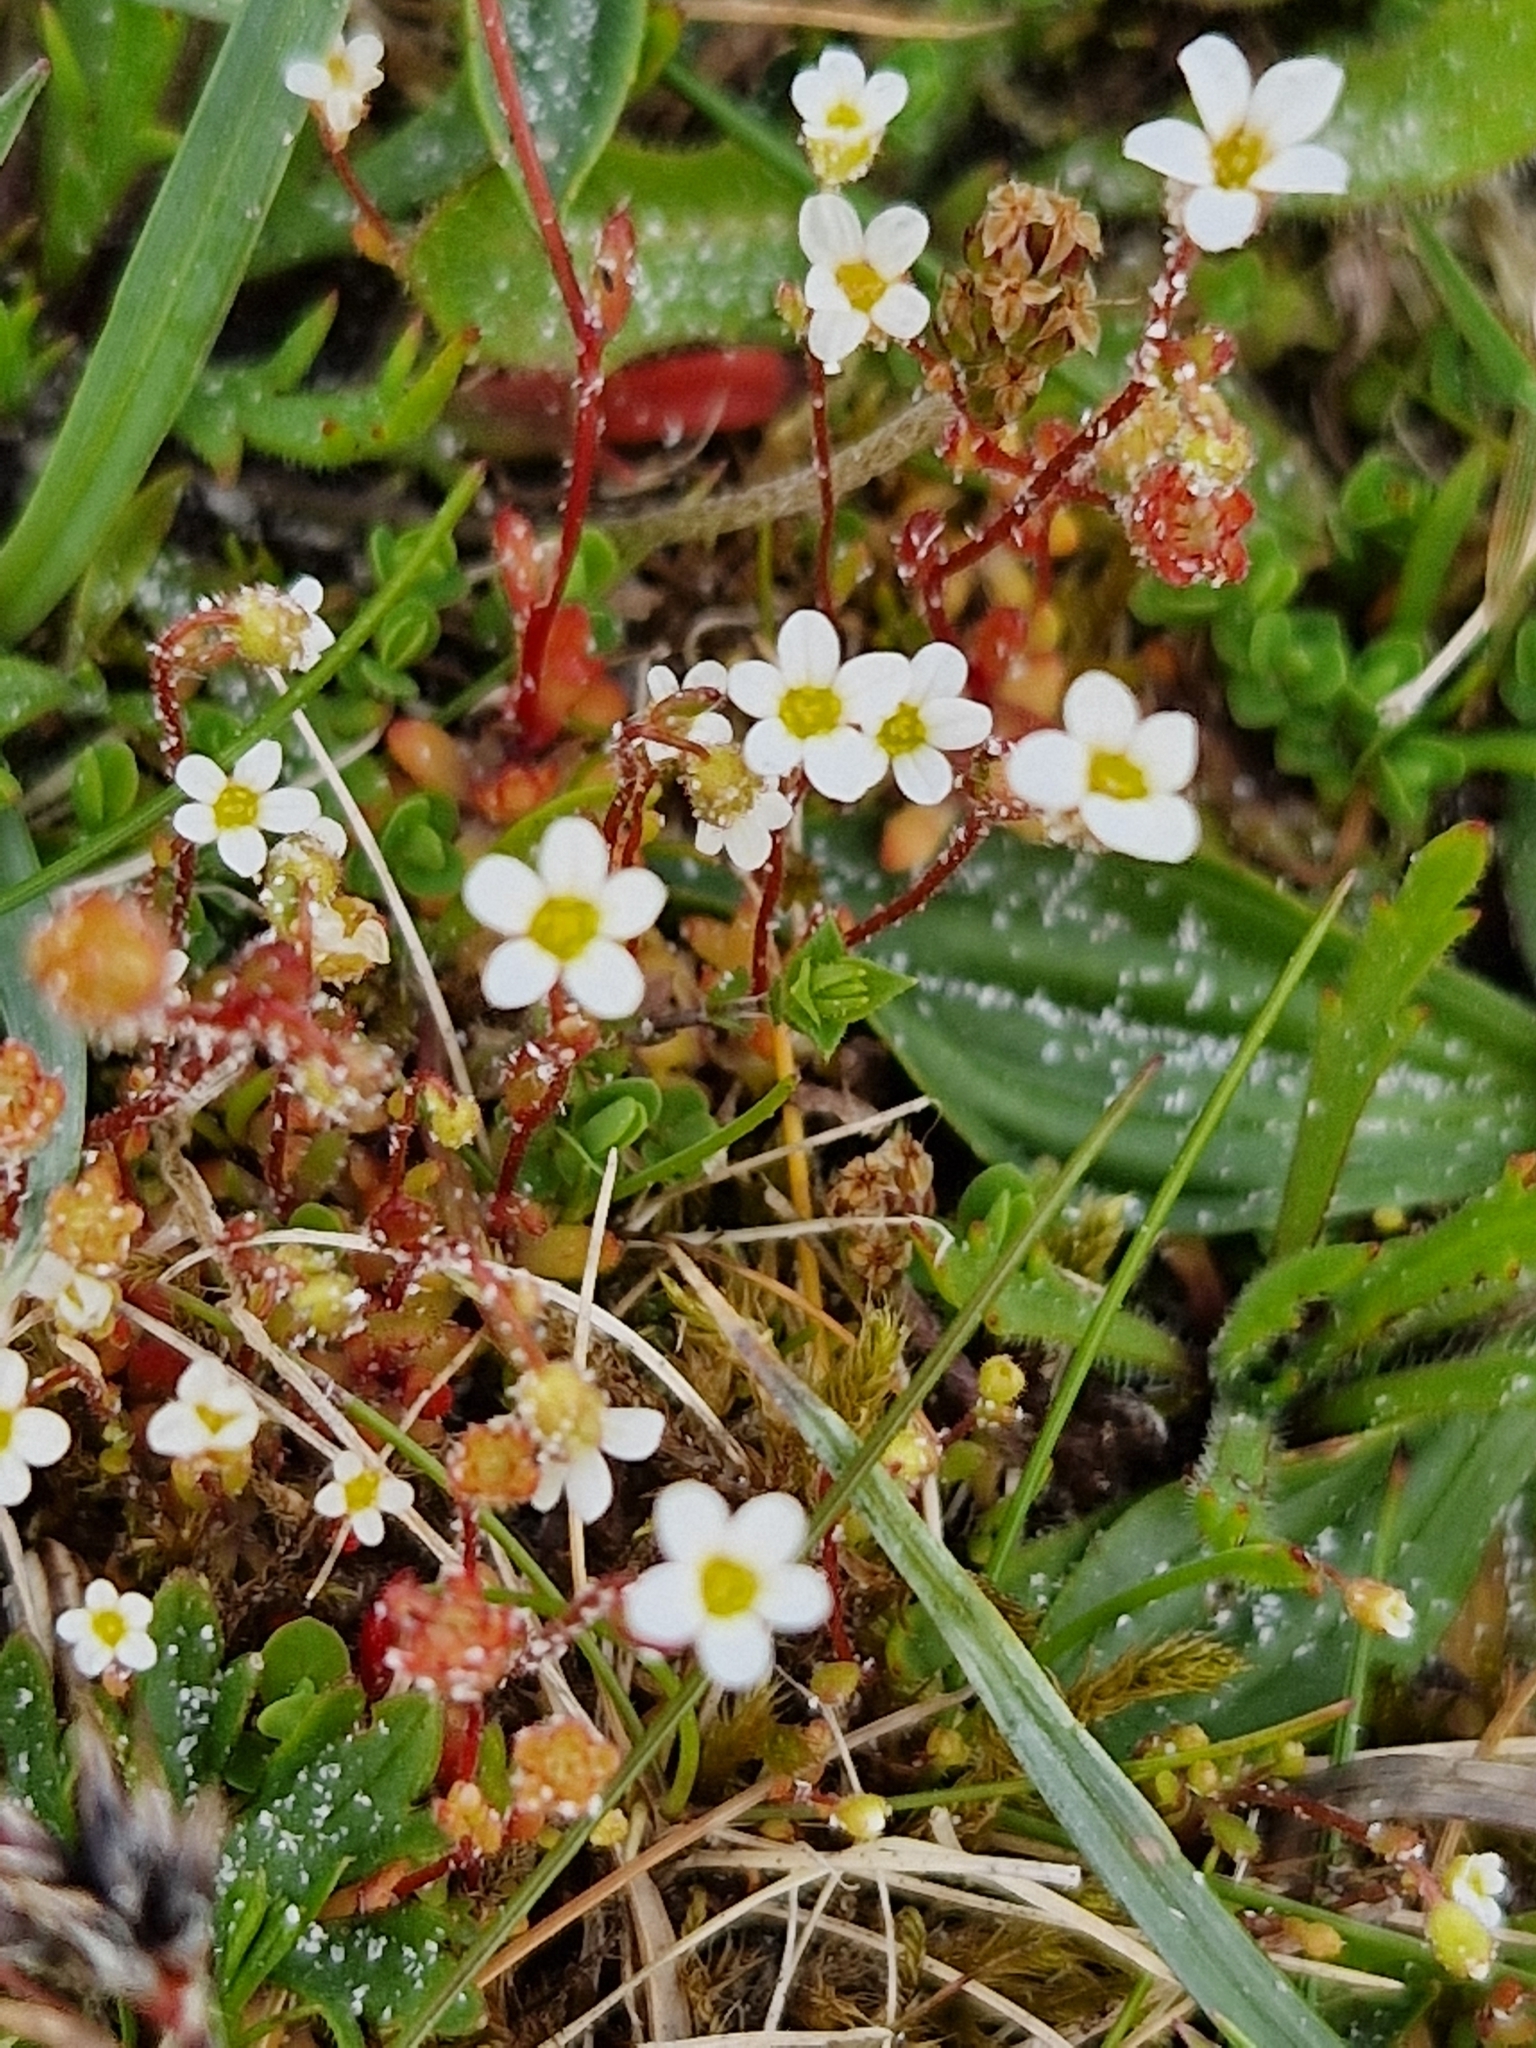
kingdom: Plantae
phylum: Tracheophyta
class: Magnoliopsida
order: Saxifragales
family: Saxifragaceae
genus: Saxifraga
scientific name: Saxifraga tridactylites
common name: Rue-leaved saxifrage
